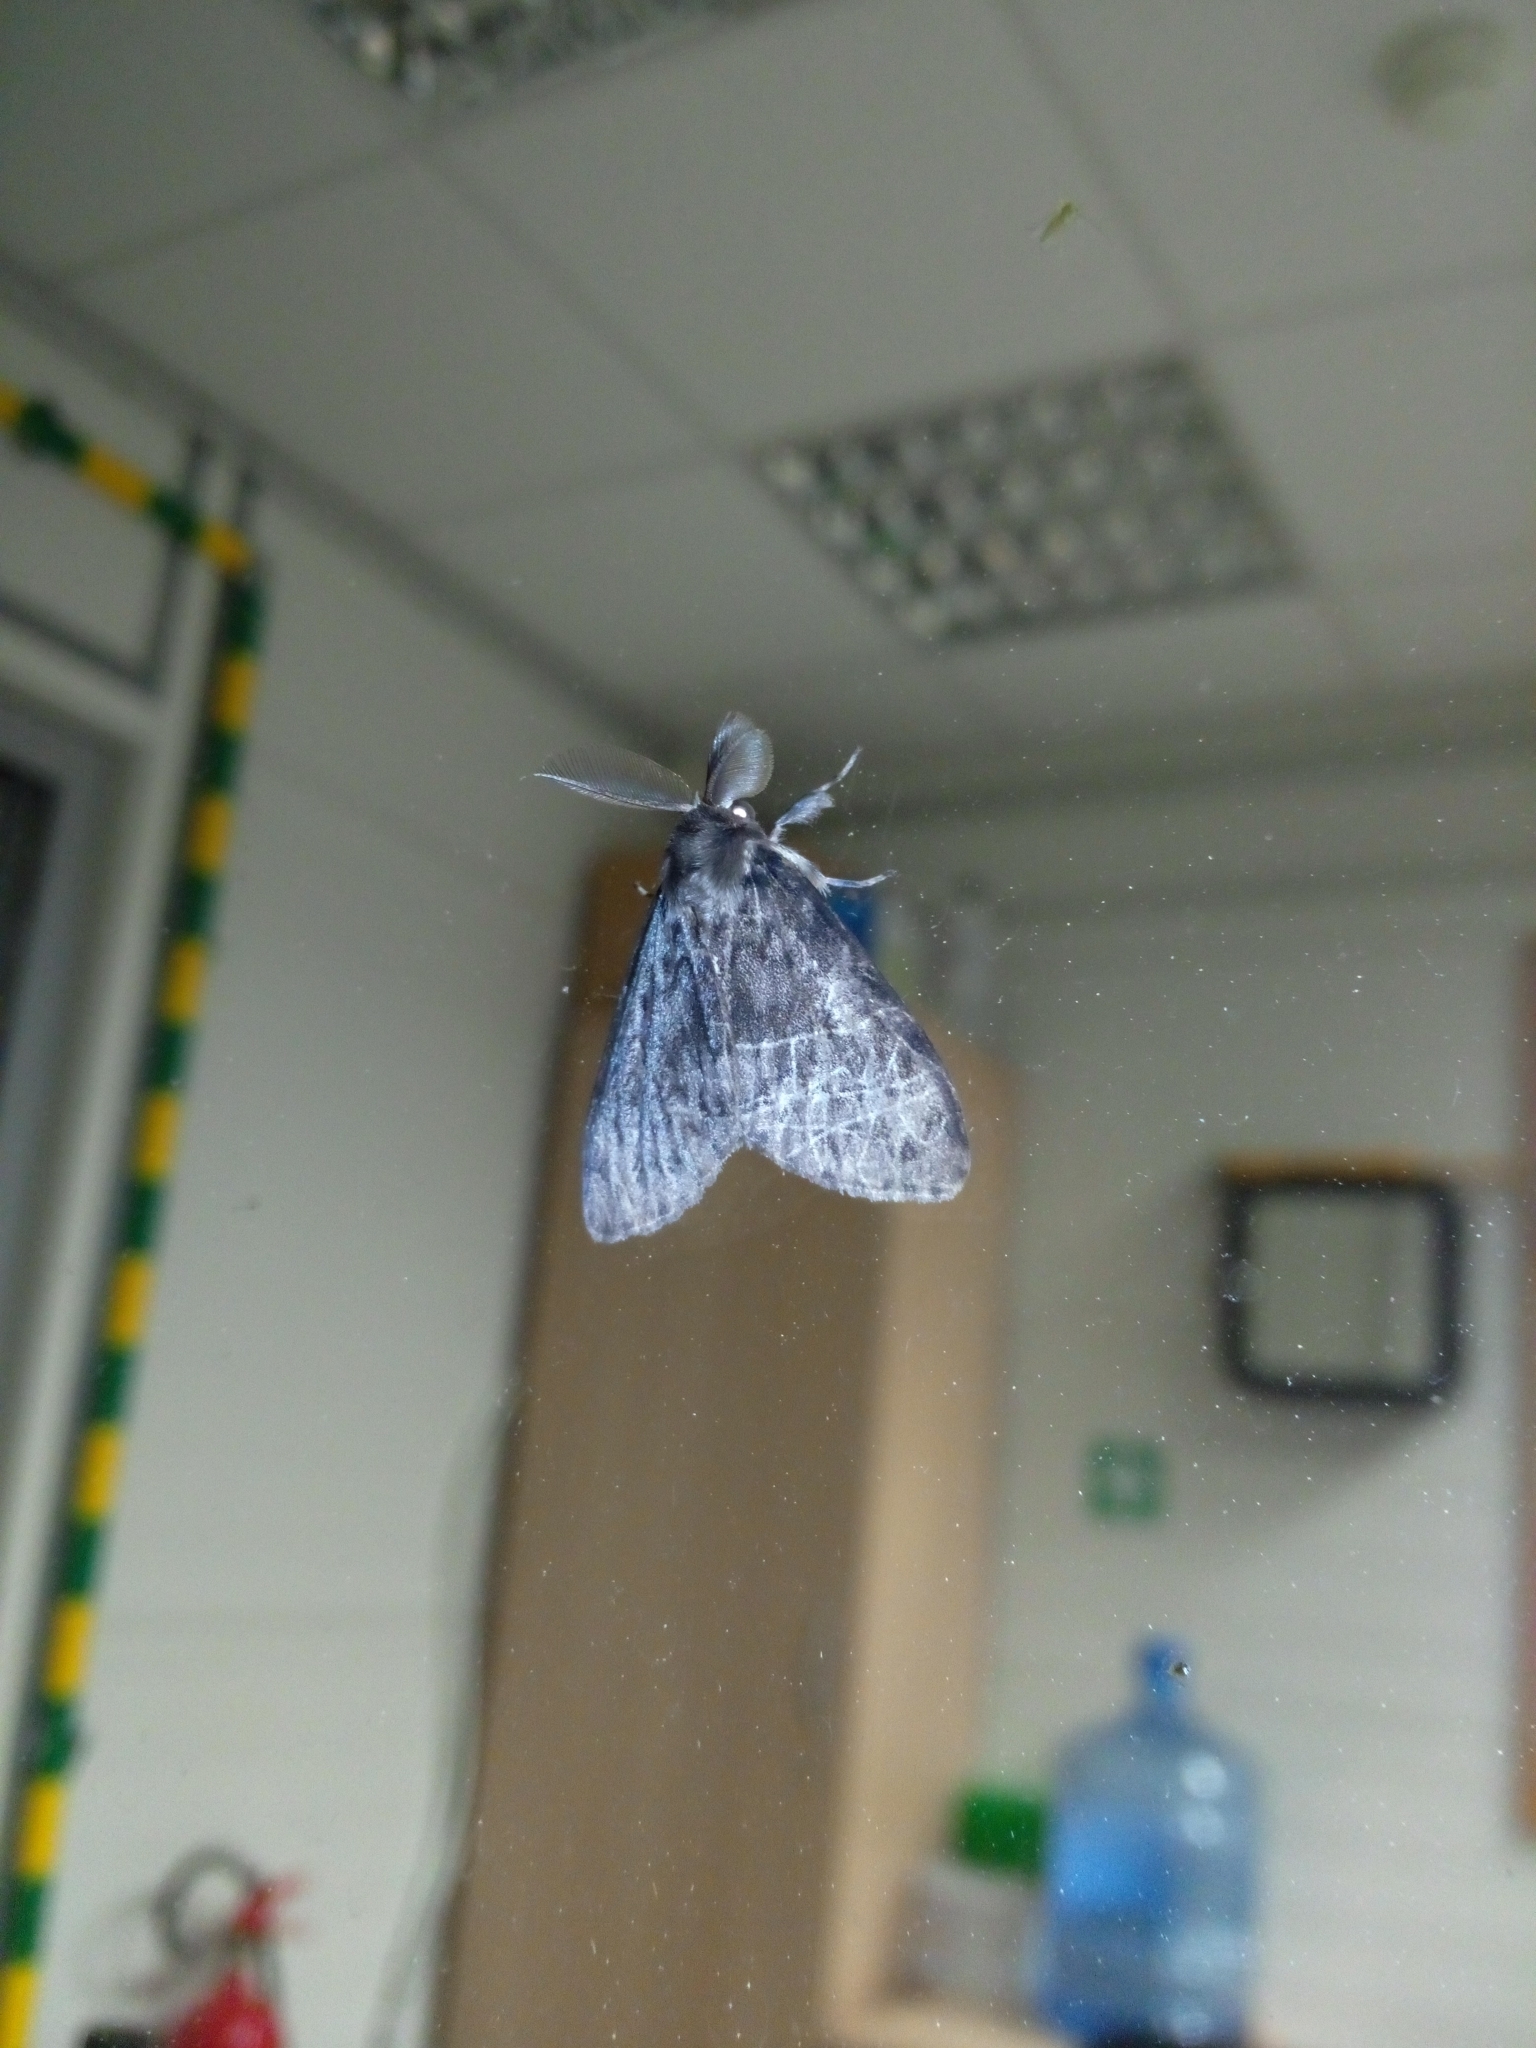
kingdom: Animalia
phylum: Arthropoda
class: Insecta
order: Lepidoptera
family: Erebidae
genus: Lymantria
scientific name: Lymantria monacha
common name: Black arches
